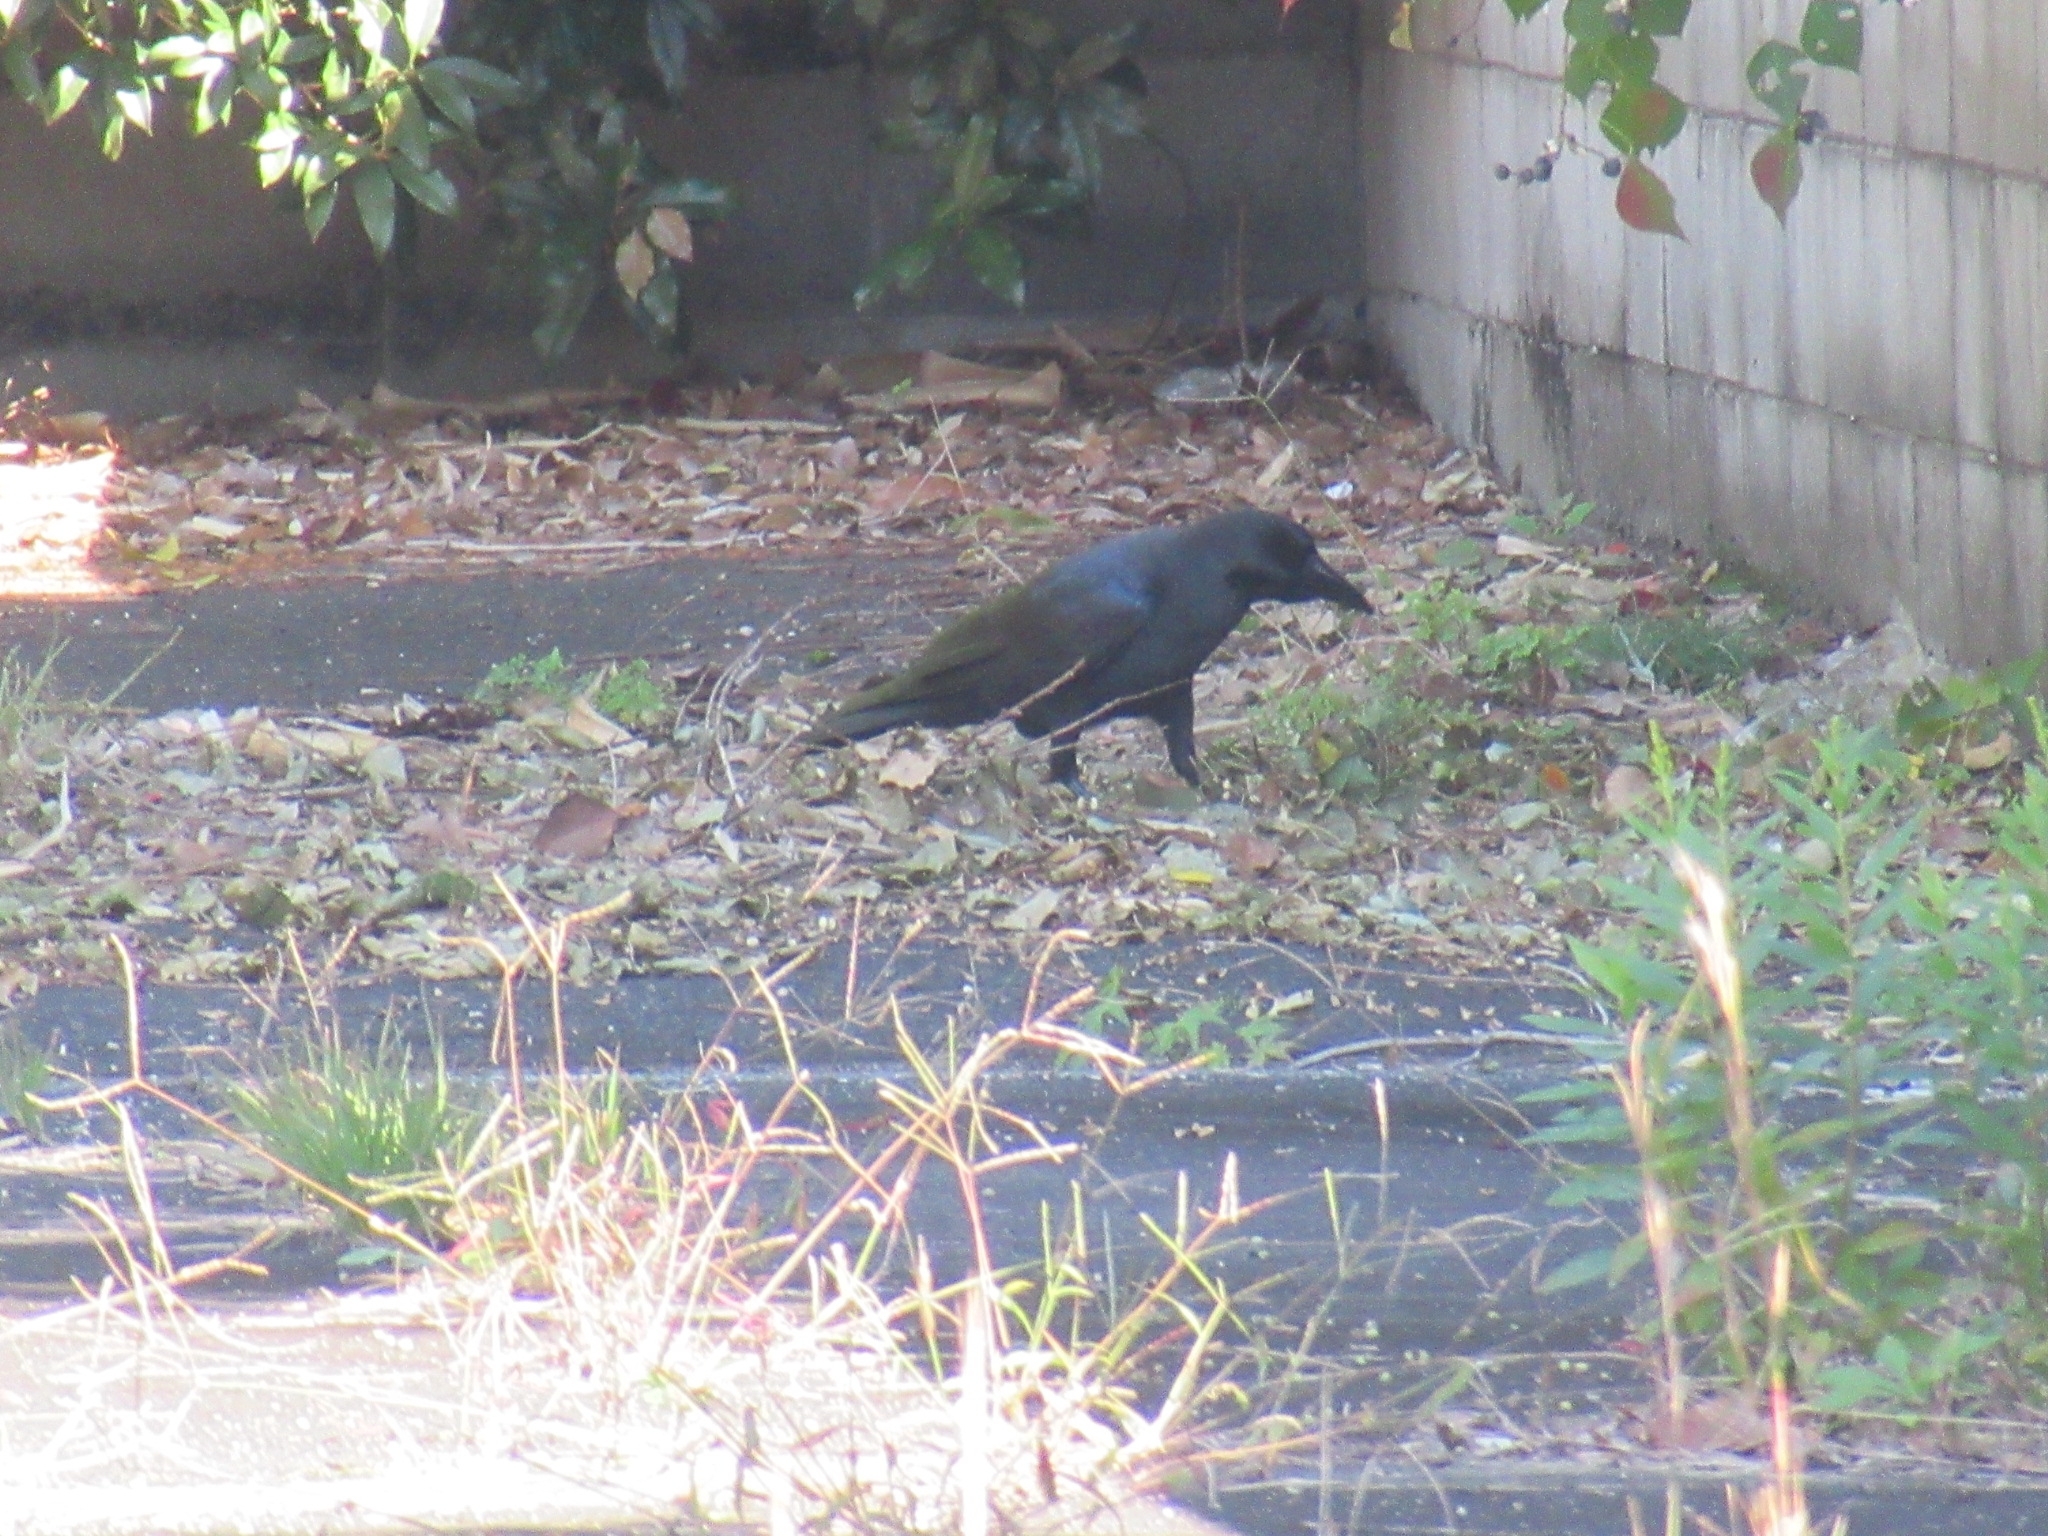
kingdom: Animalia
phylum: Chordata
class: Aves
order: Passeriformes
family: Corvidae
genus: Corvus
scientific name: Corvus macrorhynchos
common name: Large-billed crow
